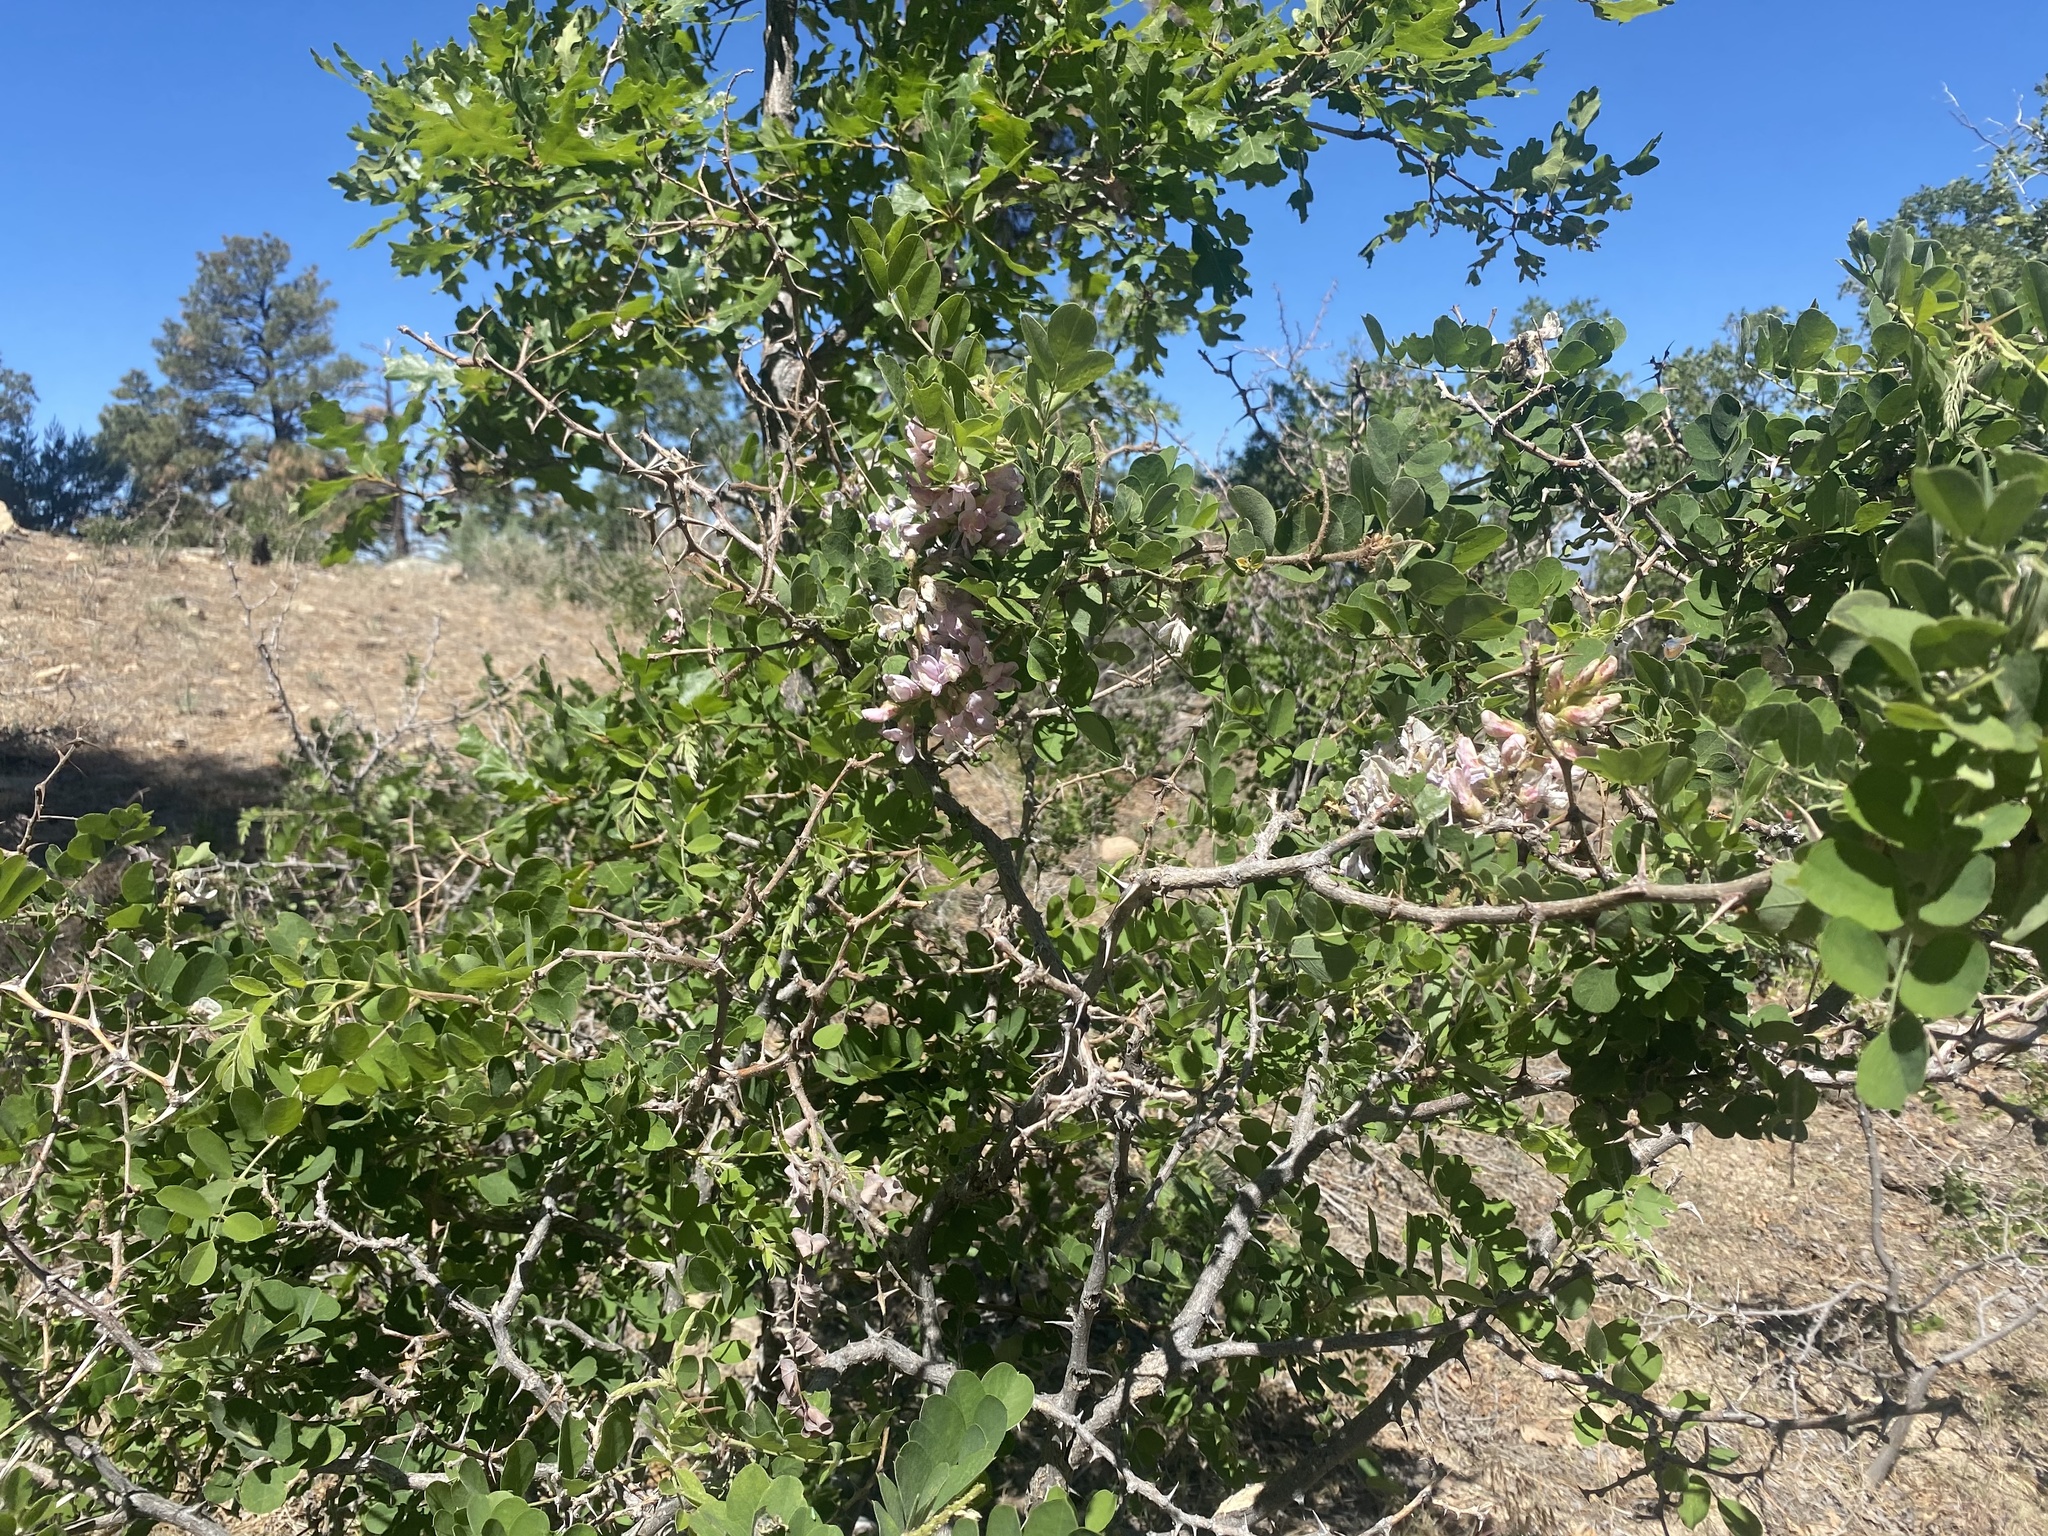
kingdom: Plantae
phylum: Tracheophyta
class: Magnoliopsida
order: Fabales
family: Fabaceae
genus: Robinia
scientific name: Robinia neomexicana
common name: New mexico locust
